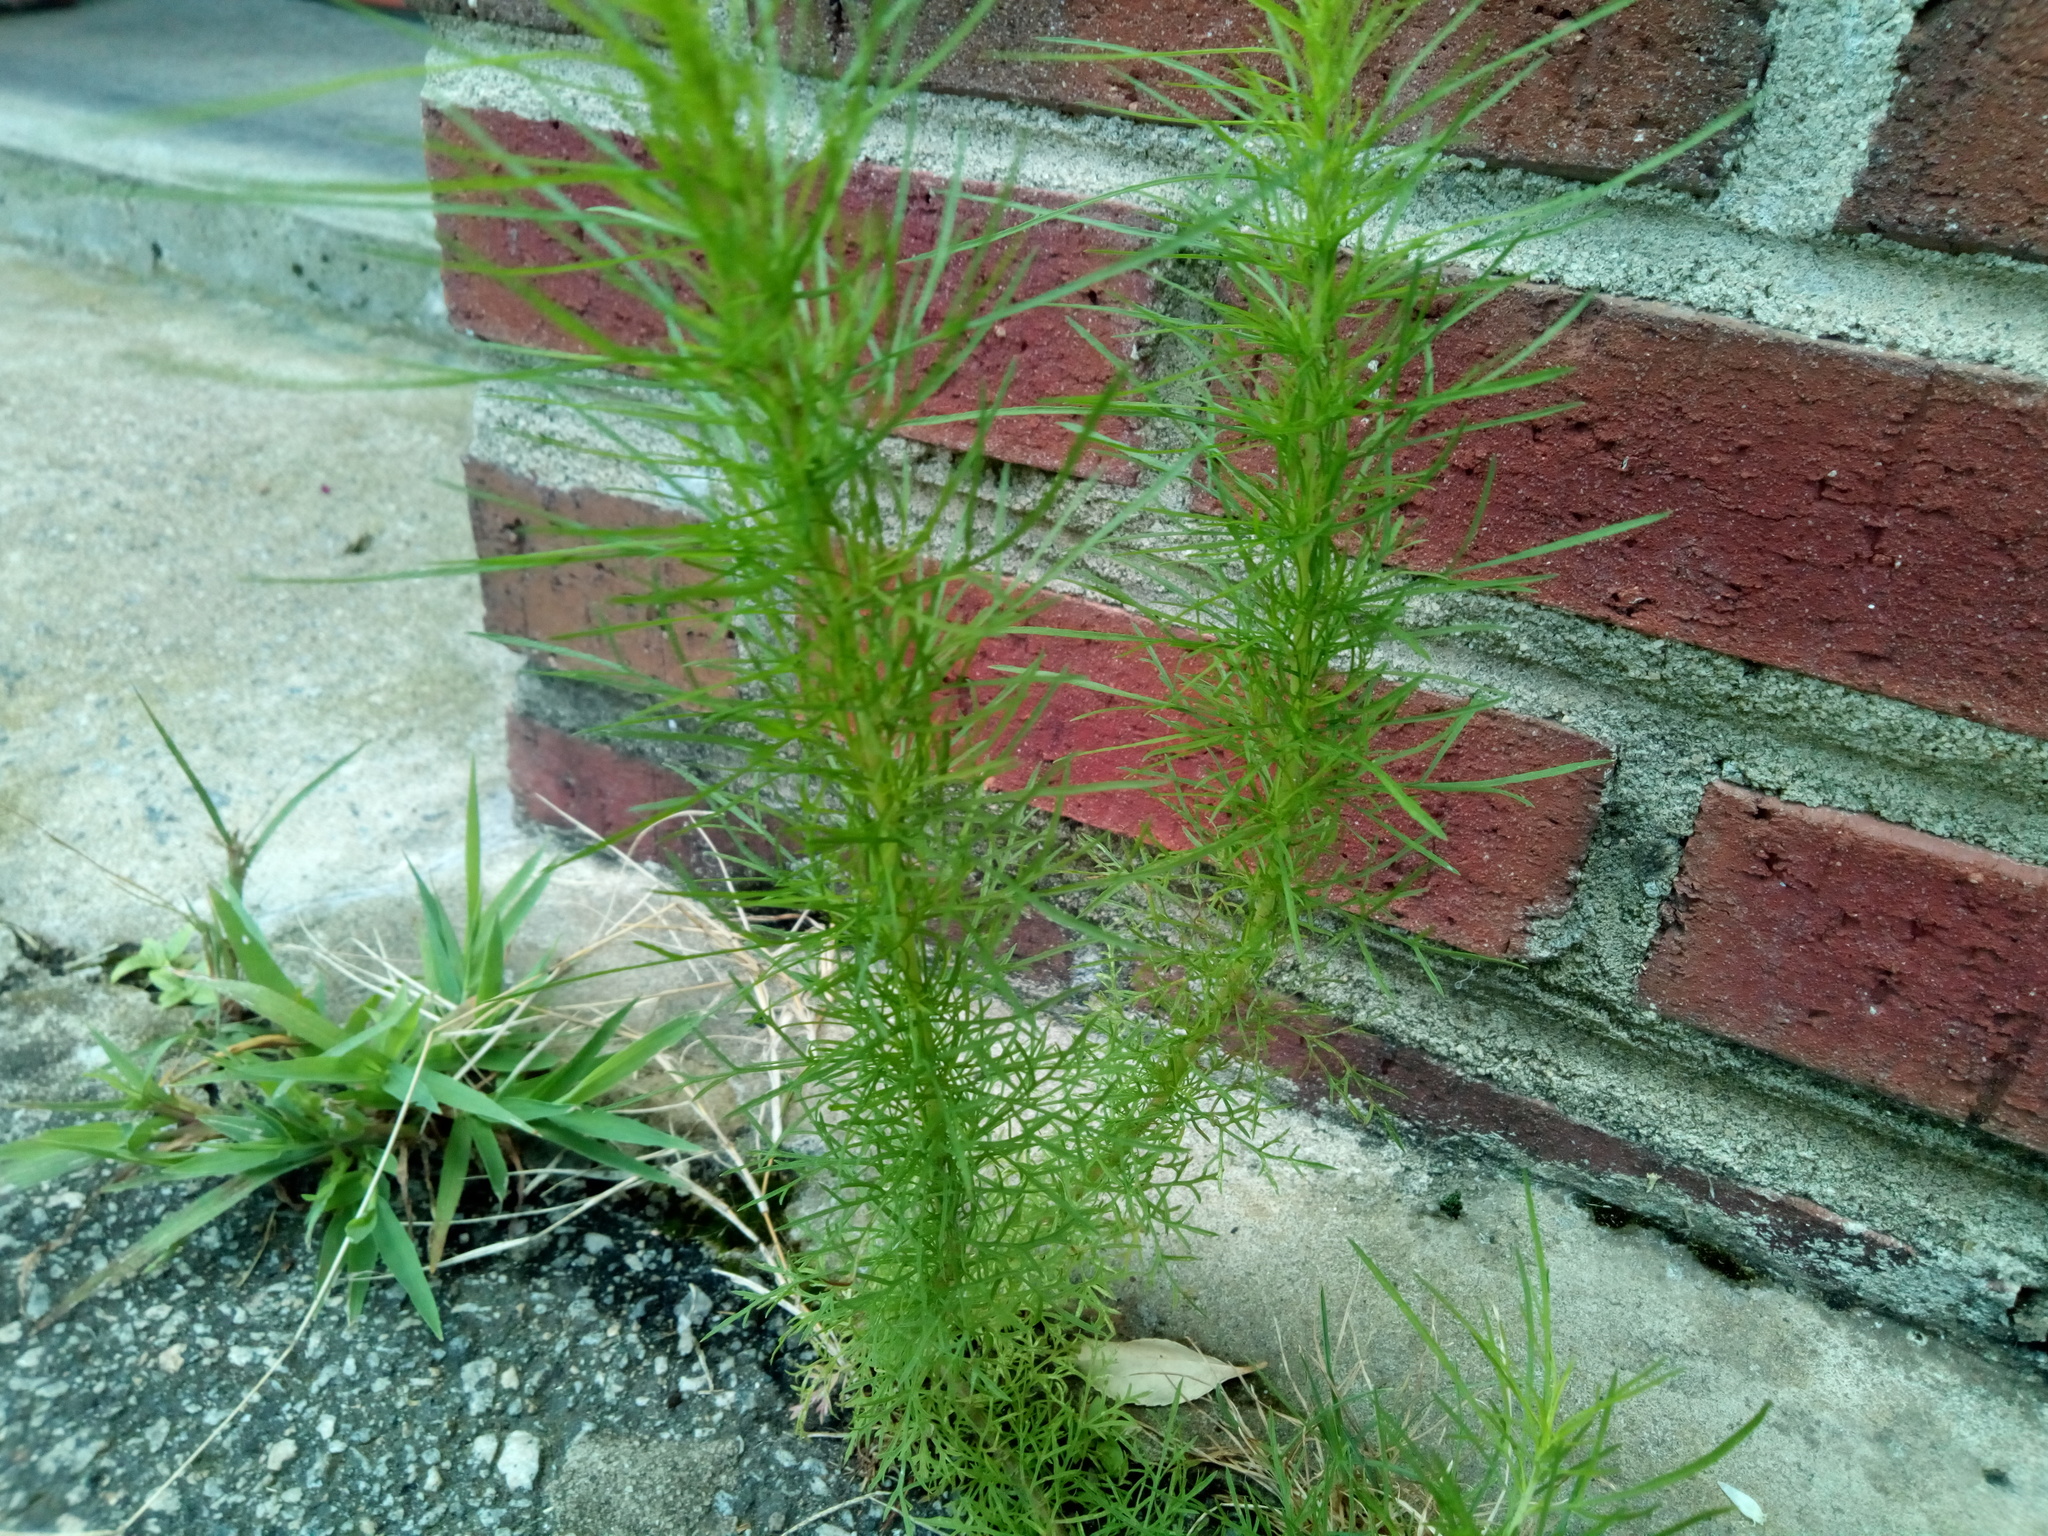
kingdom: Plantae
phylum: Tracheophyta
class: Magnoliopsida
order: Asterales
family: Asteraceae
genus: Eupatorium
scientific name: Eupatorium capillifolium
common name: Dog-fennel
